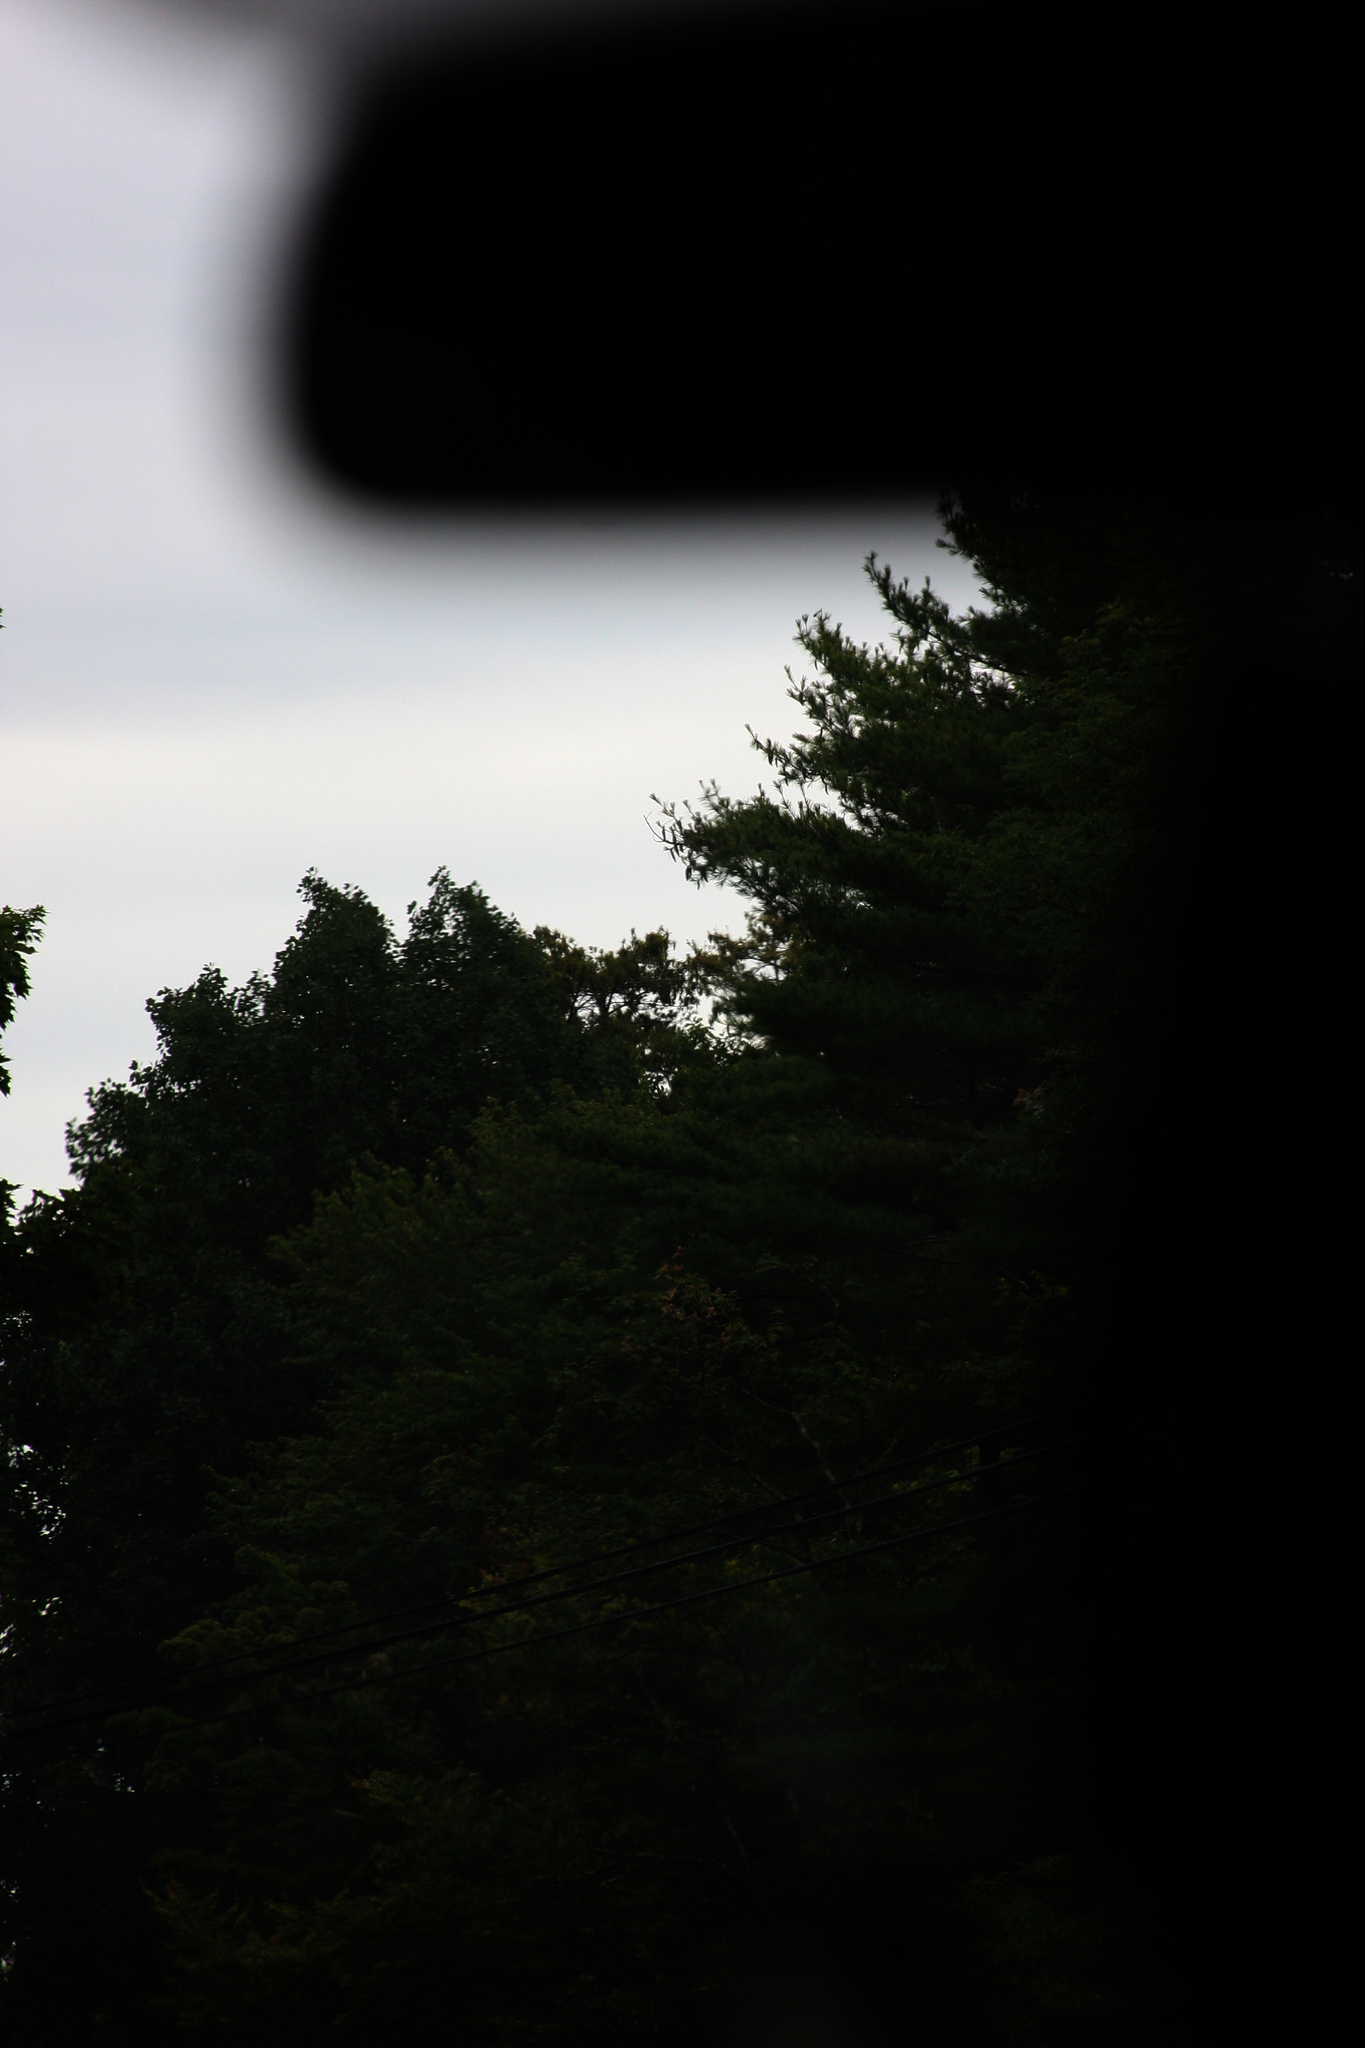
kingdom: Plantae
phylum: Tracheophyta
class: Pinopsida
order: Pinales
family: Pinaceae
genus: Pinus
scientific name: Pinus strobus
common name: Weymouth pine
